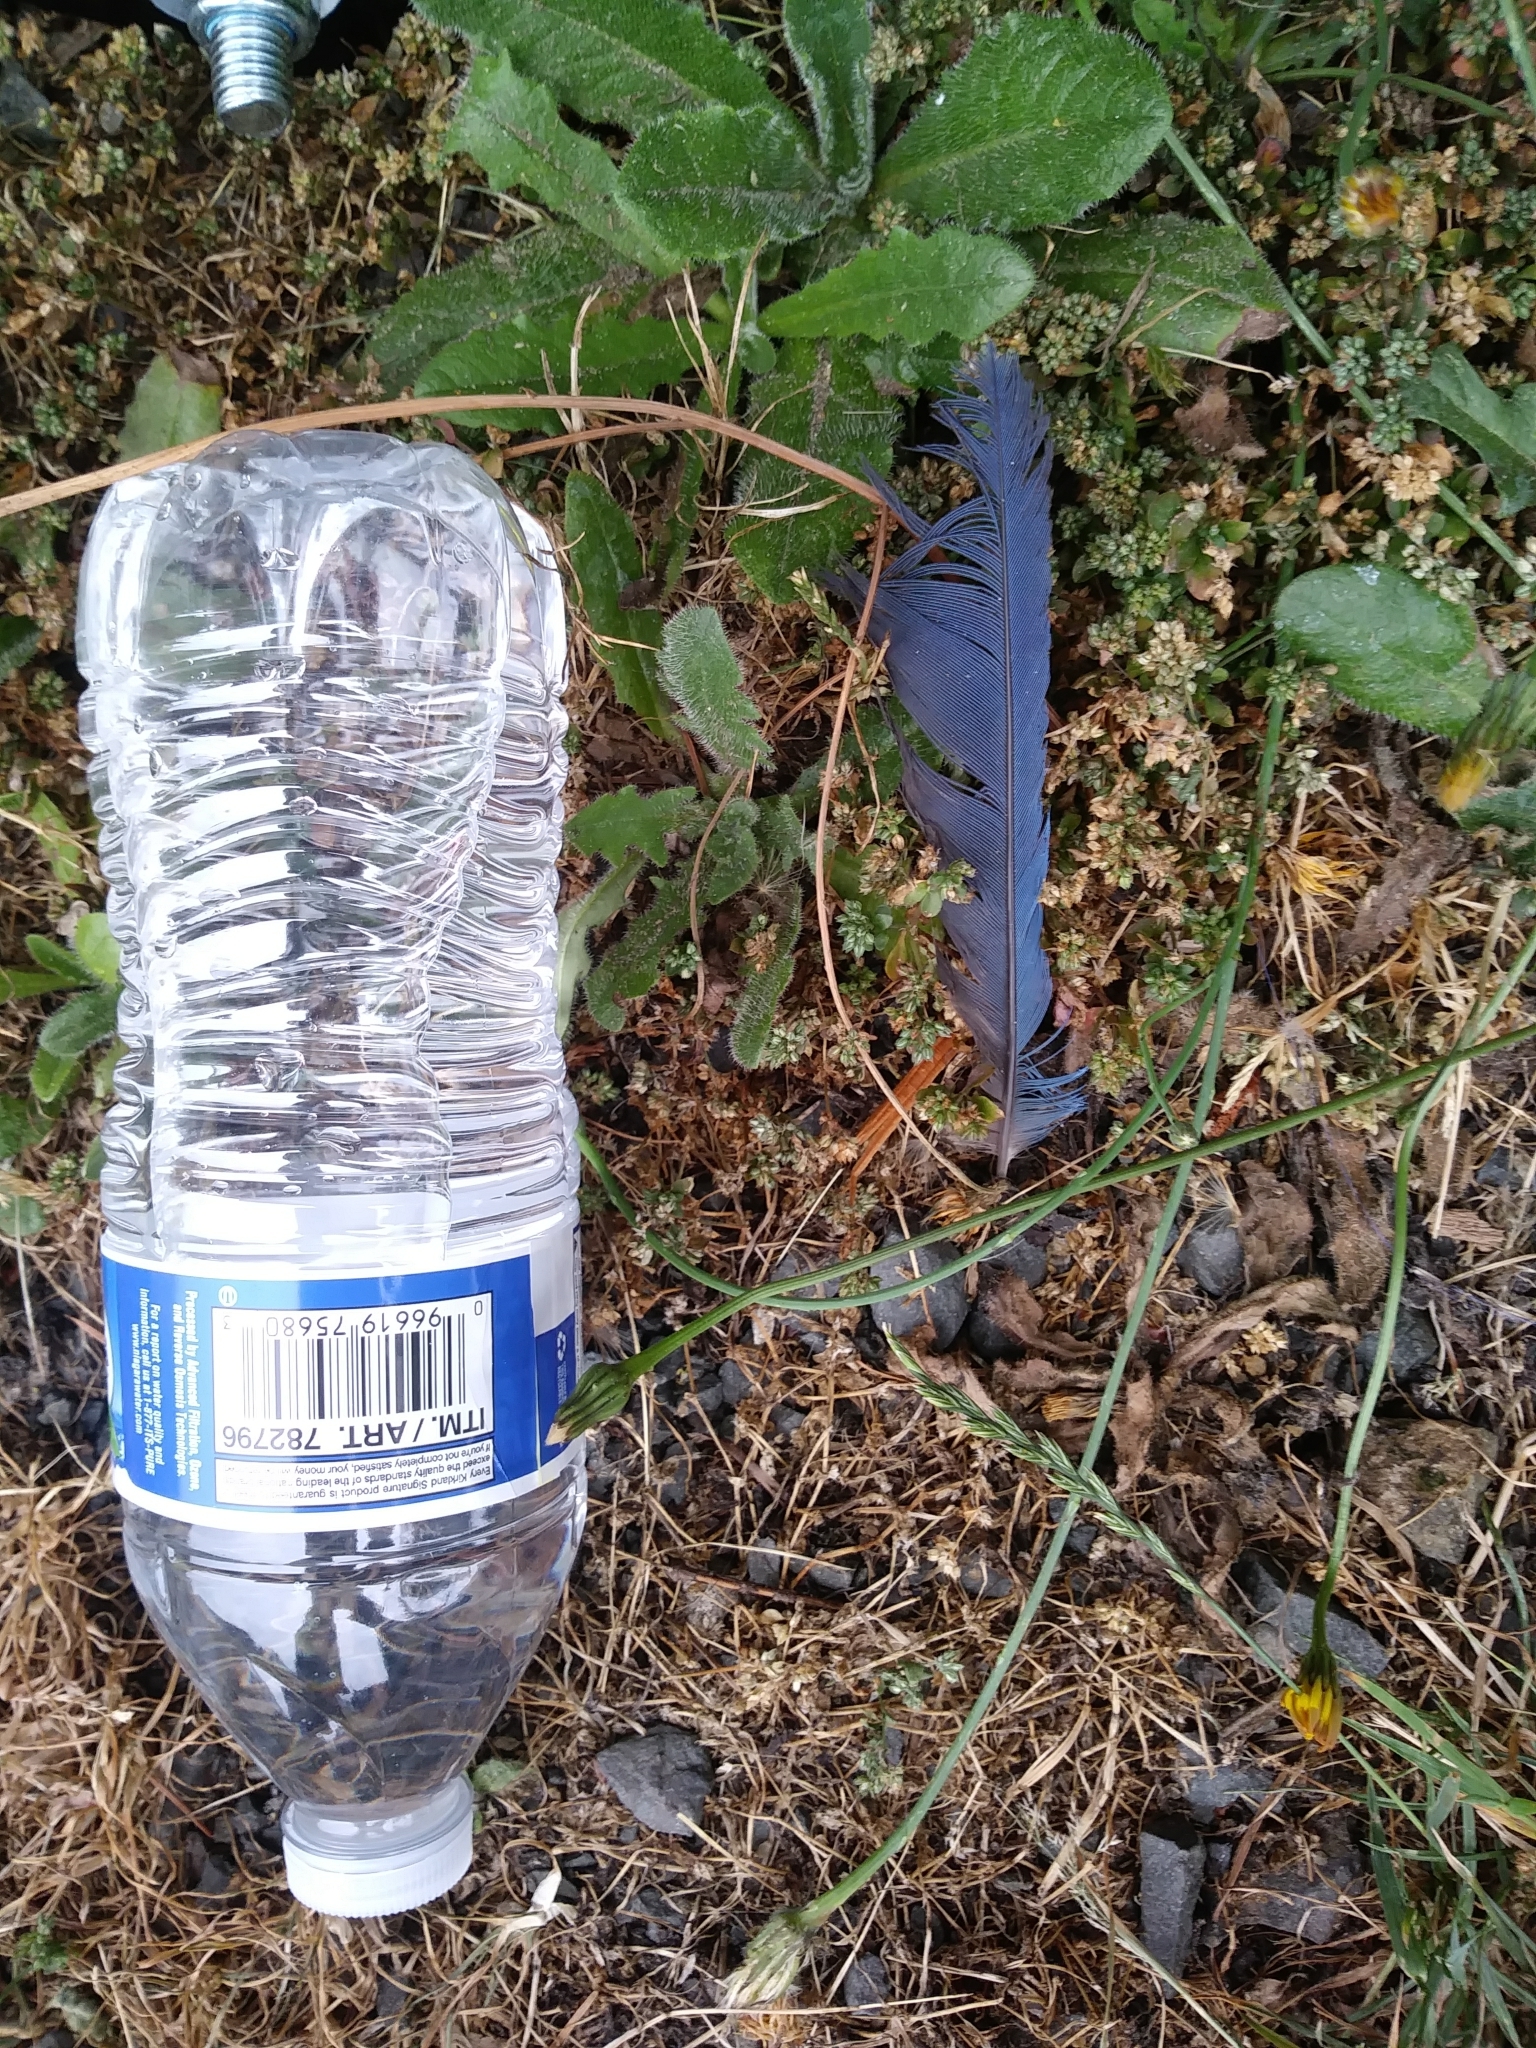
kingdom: Animalia
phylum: Chordata
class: Aves
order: Passeriformes
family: Corvidae
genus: Cyanocitta
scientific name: Cyanocitta stelleri
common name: Steller's jay
